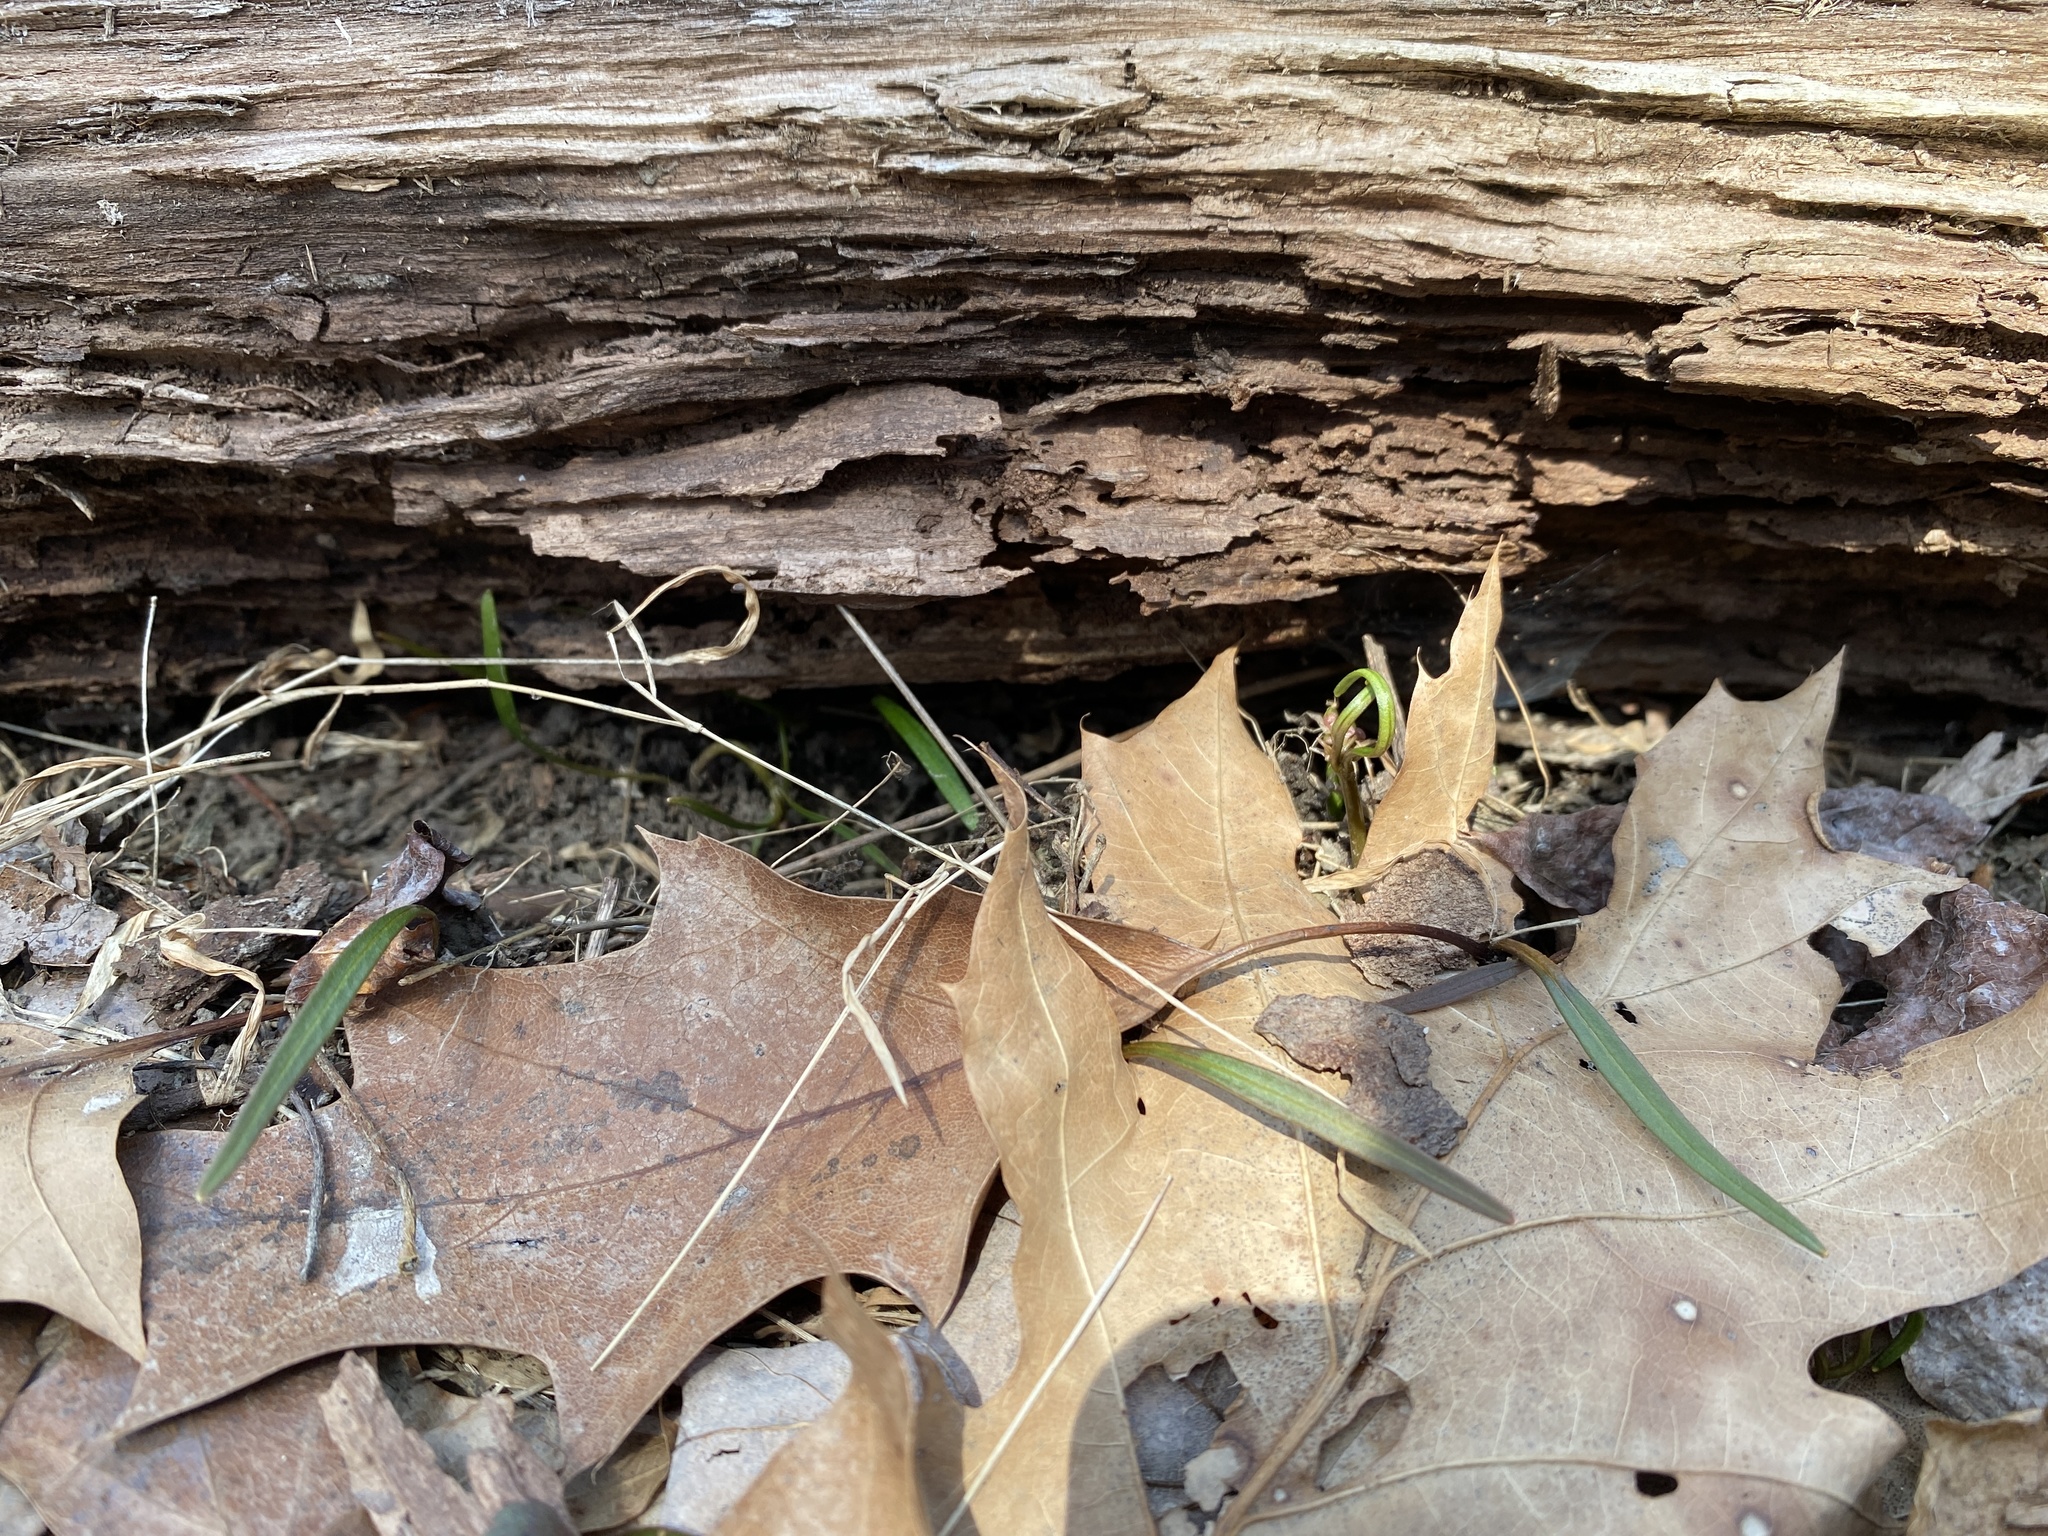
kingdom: Plantae
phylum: Tracheophyta
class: Magnoliopsida
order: Caryophyllales
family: Montiaceae
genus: Claytonia
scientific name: Claytonia virginica
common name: Virginia springbeauty
